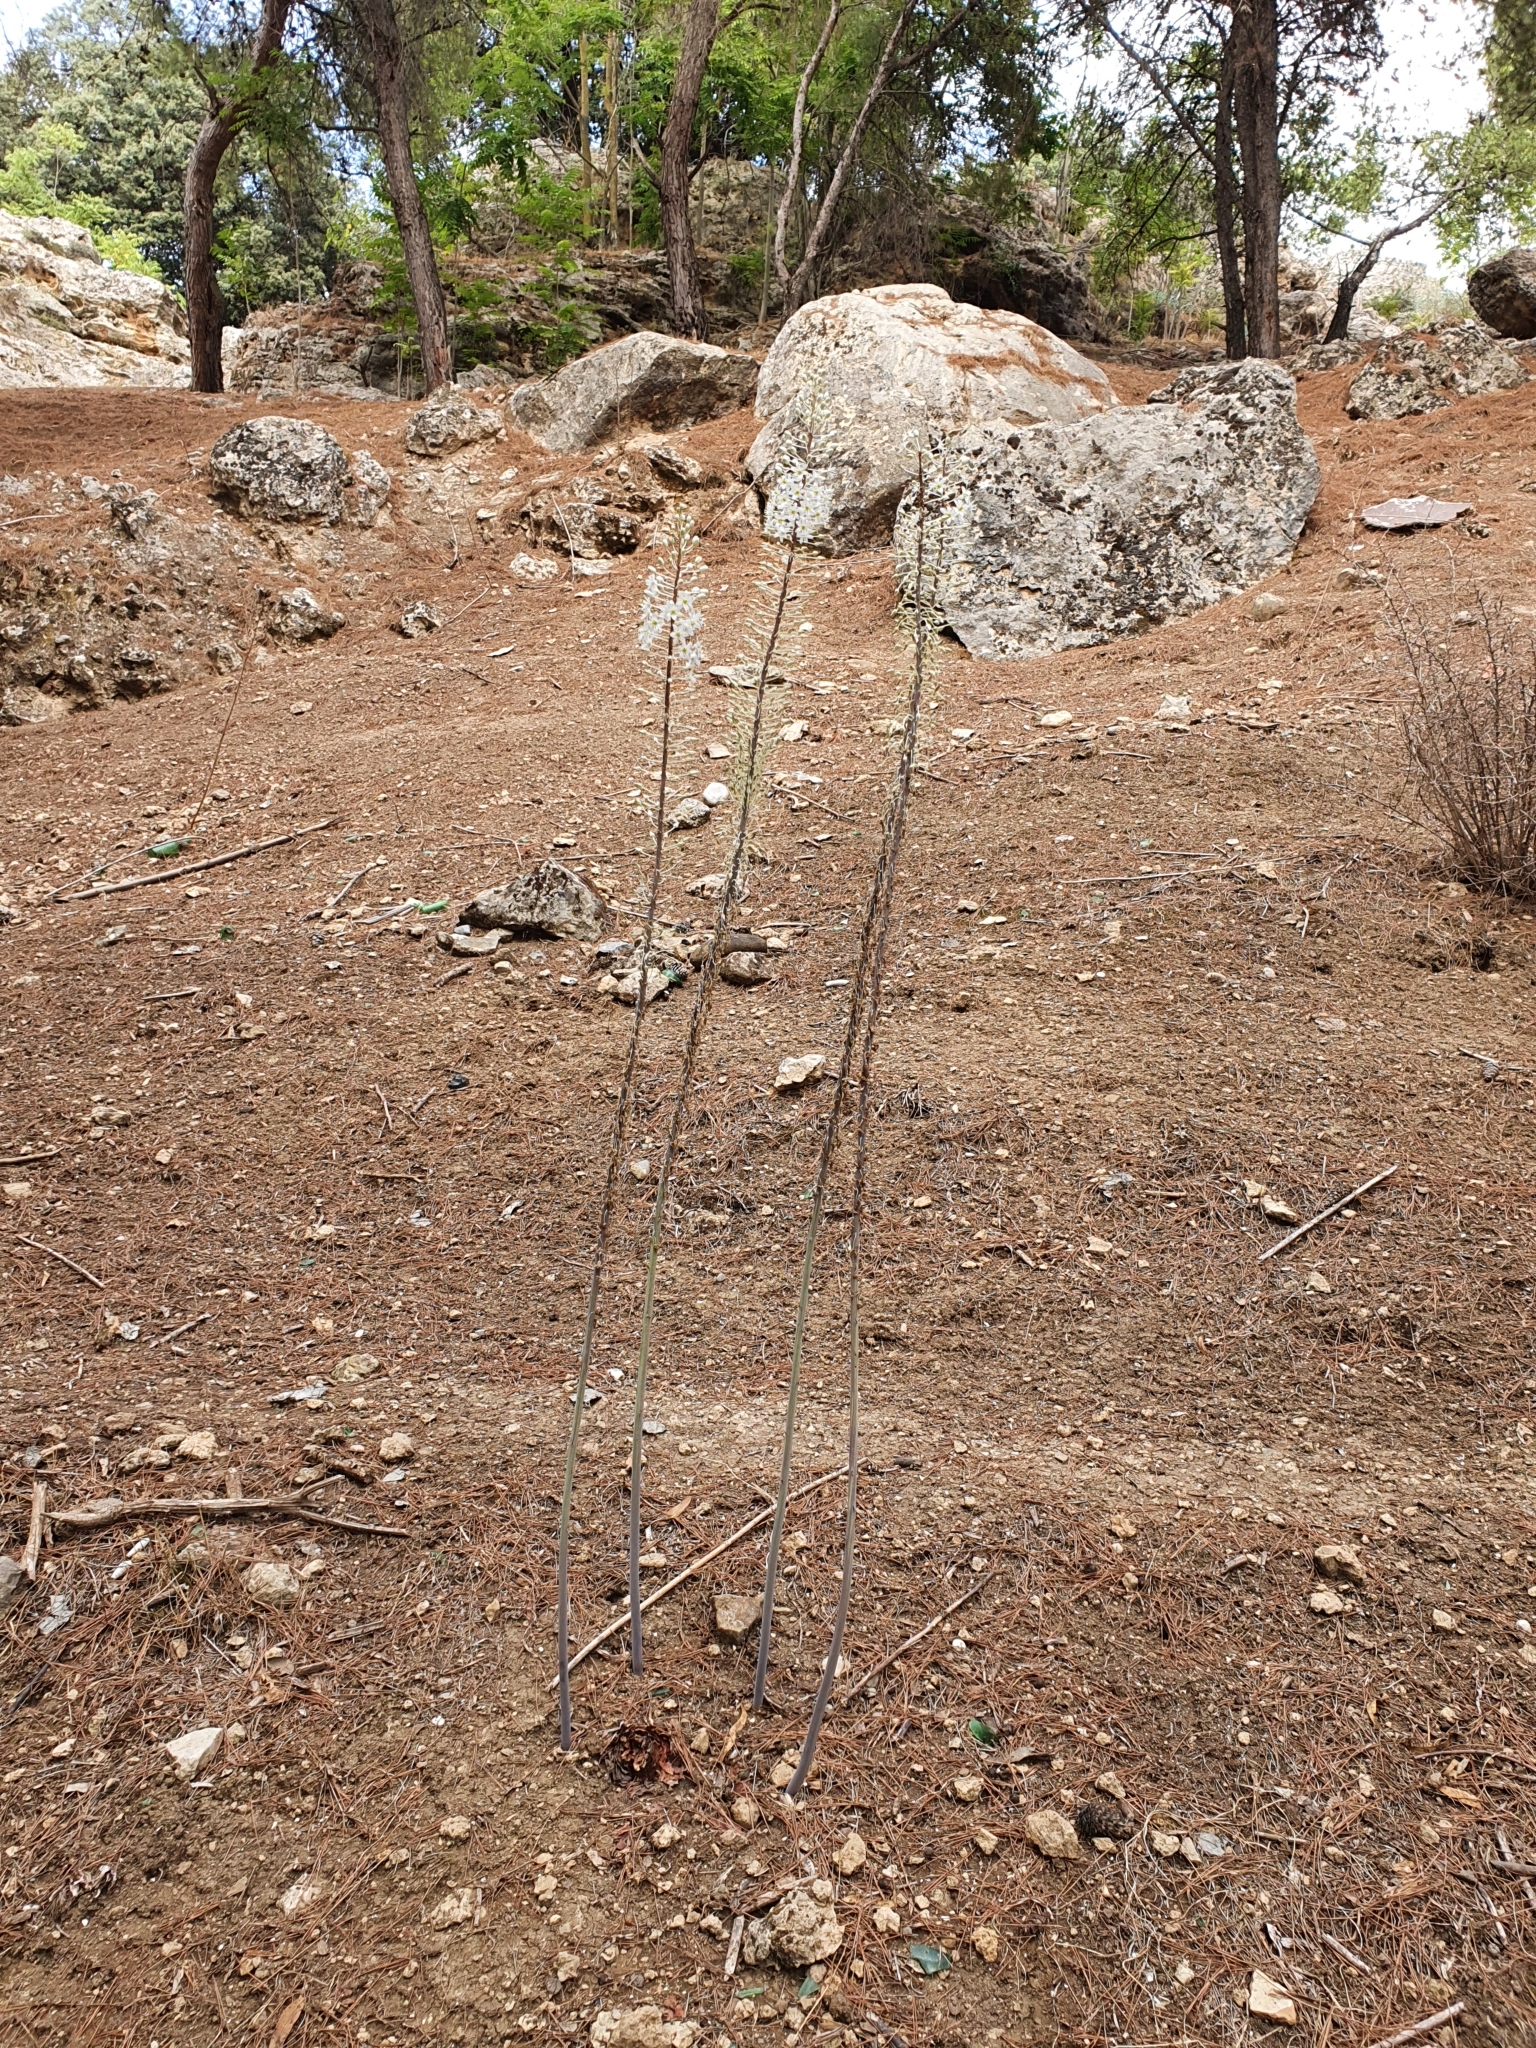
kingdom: Plantae
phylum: Tracheophyta
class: Liliopsida
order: Asparagales
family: Asparagaceae
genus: Drimia
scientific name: Drimia numidica
